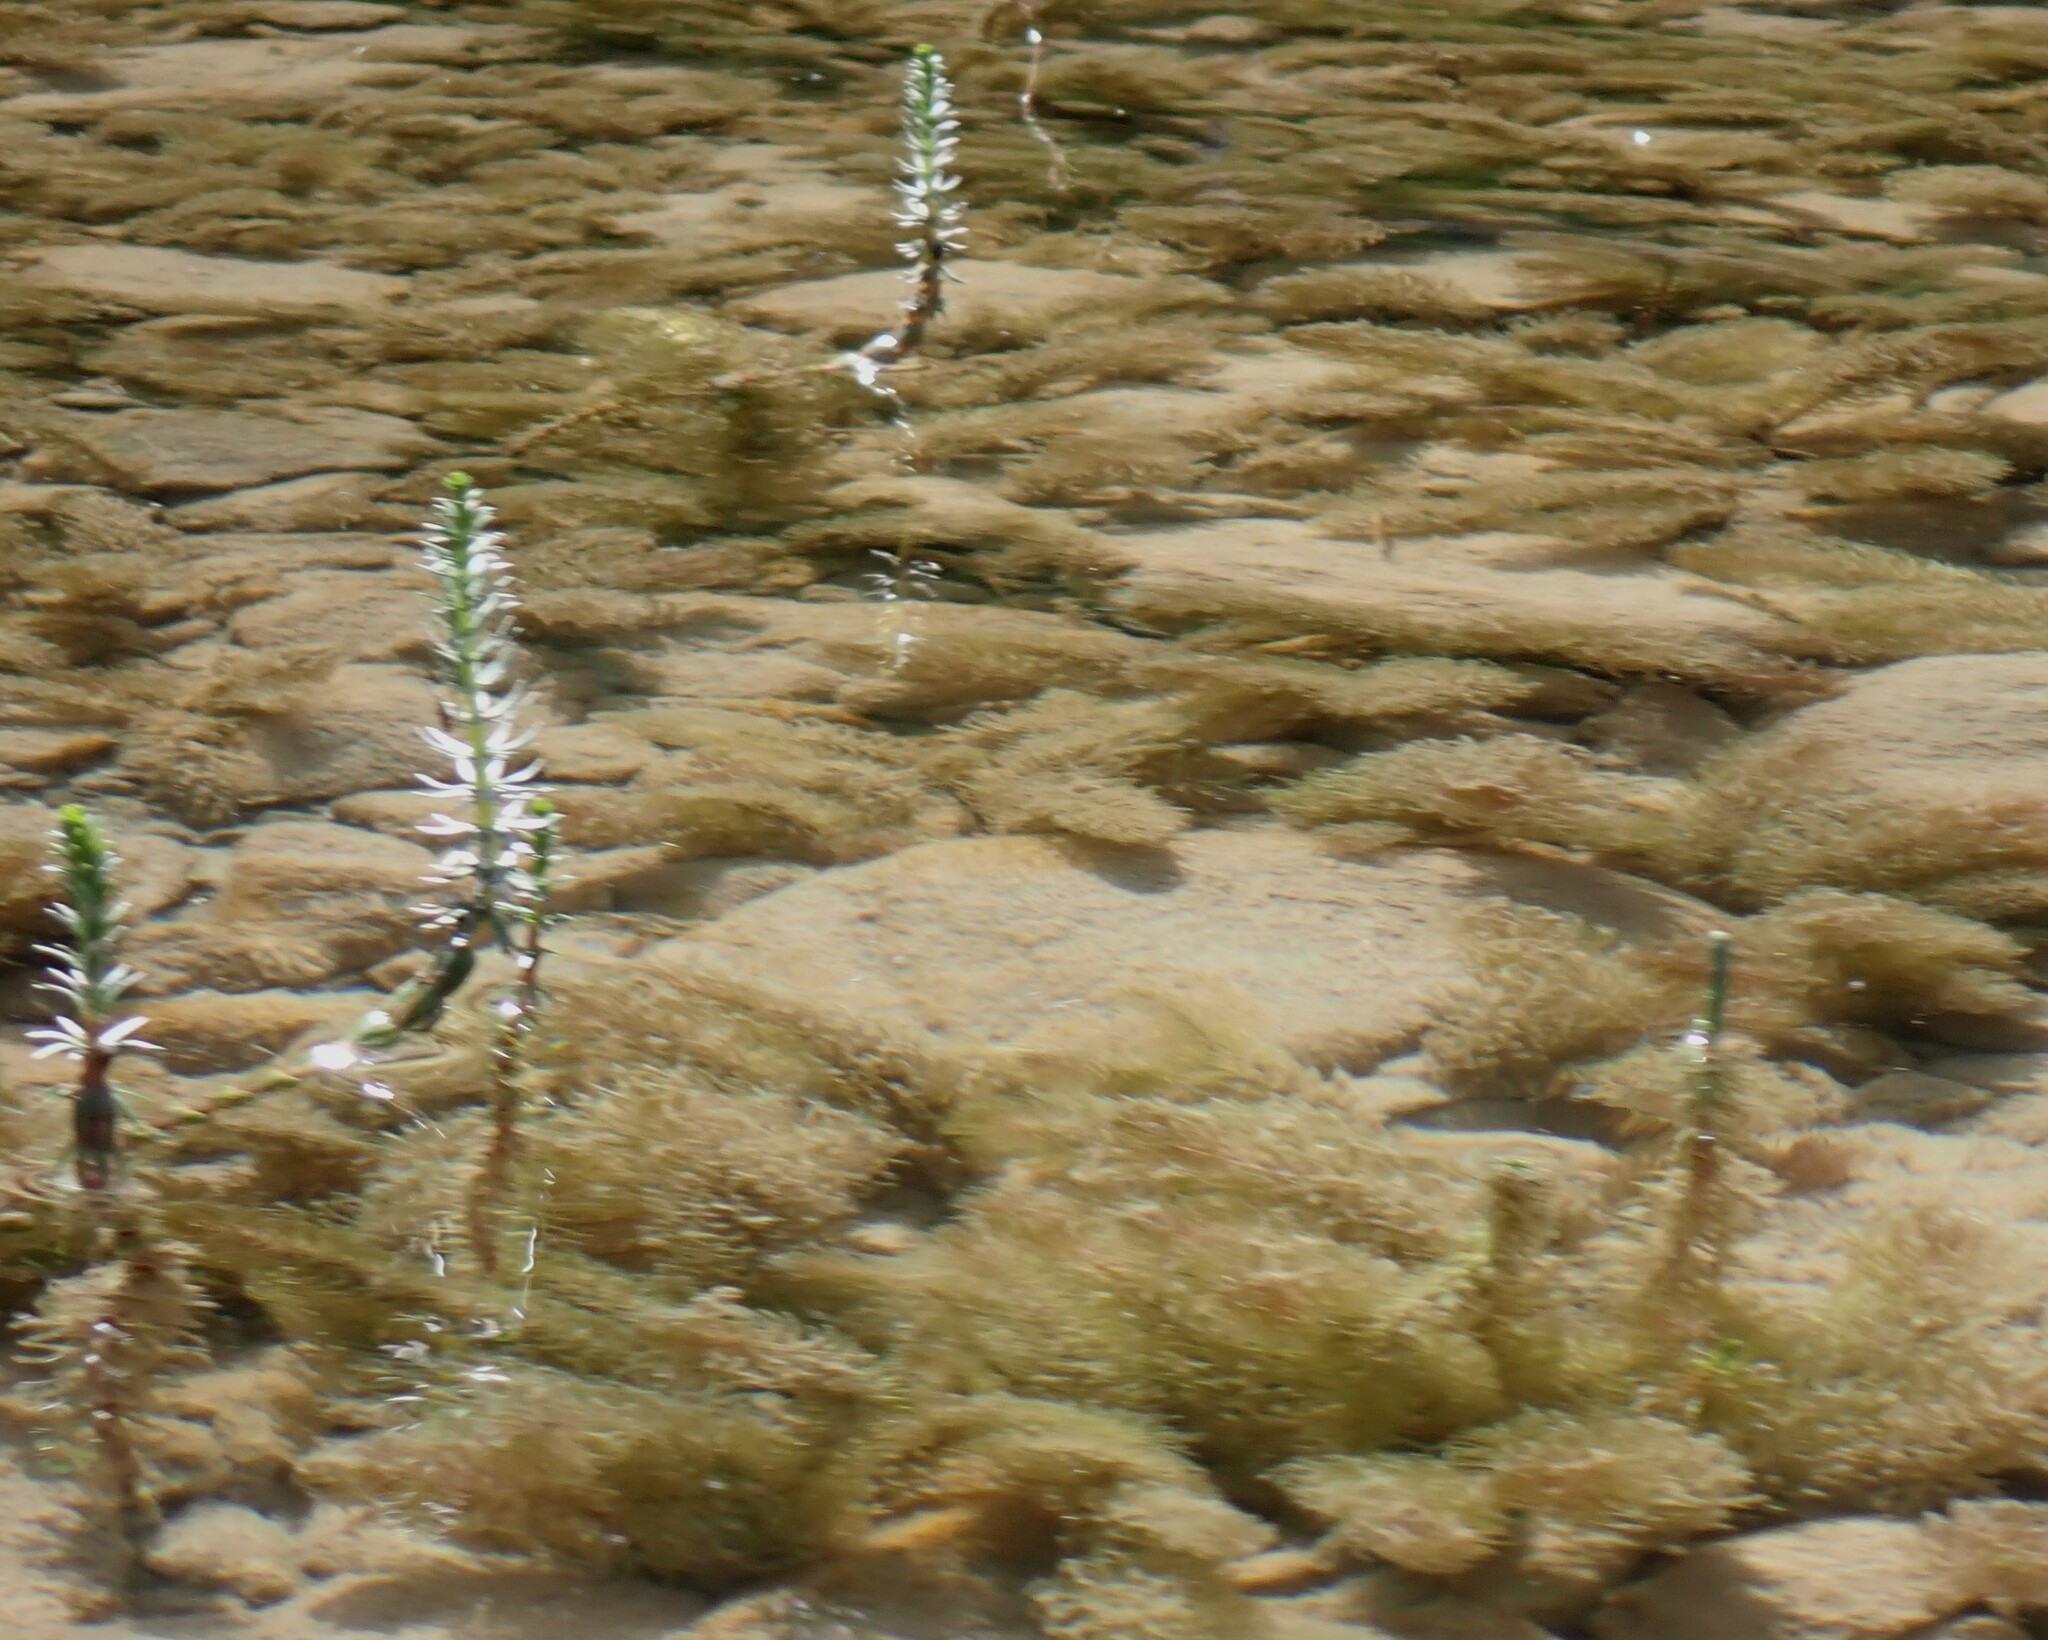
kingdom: Plantae
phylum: Tracheophyta
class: Magnoliopsida
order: Lamiales
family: Plantaginaceae
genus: Hippuris
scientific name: Hippuris vulgaris
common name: Mare's-tail
